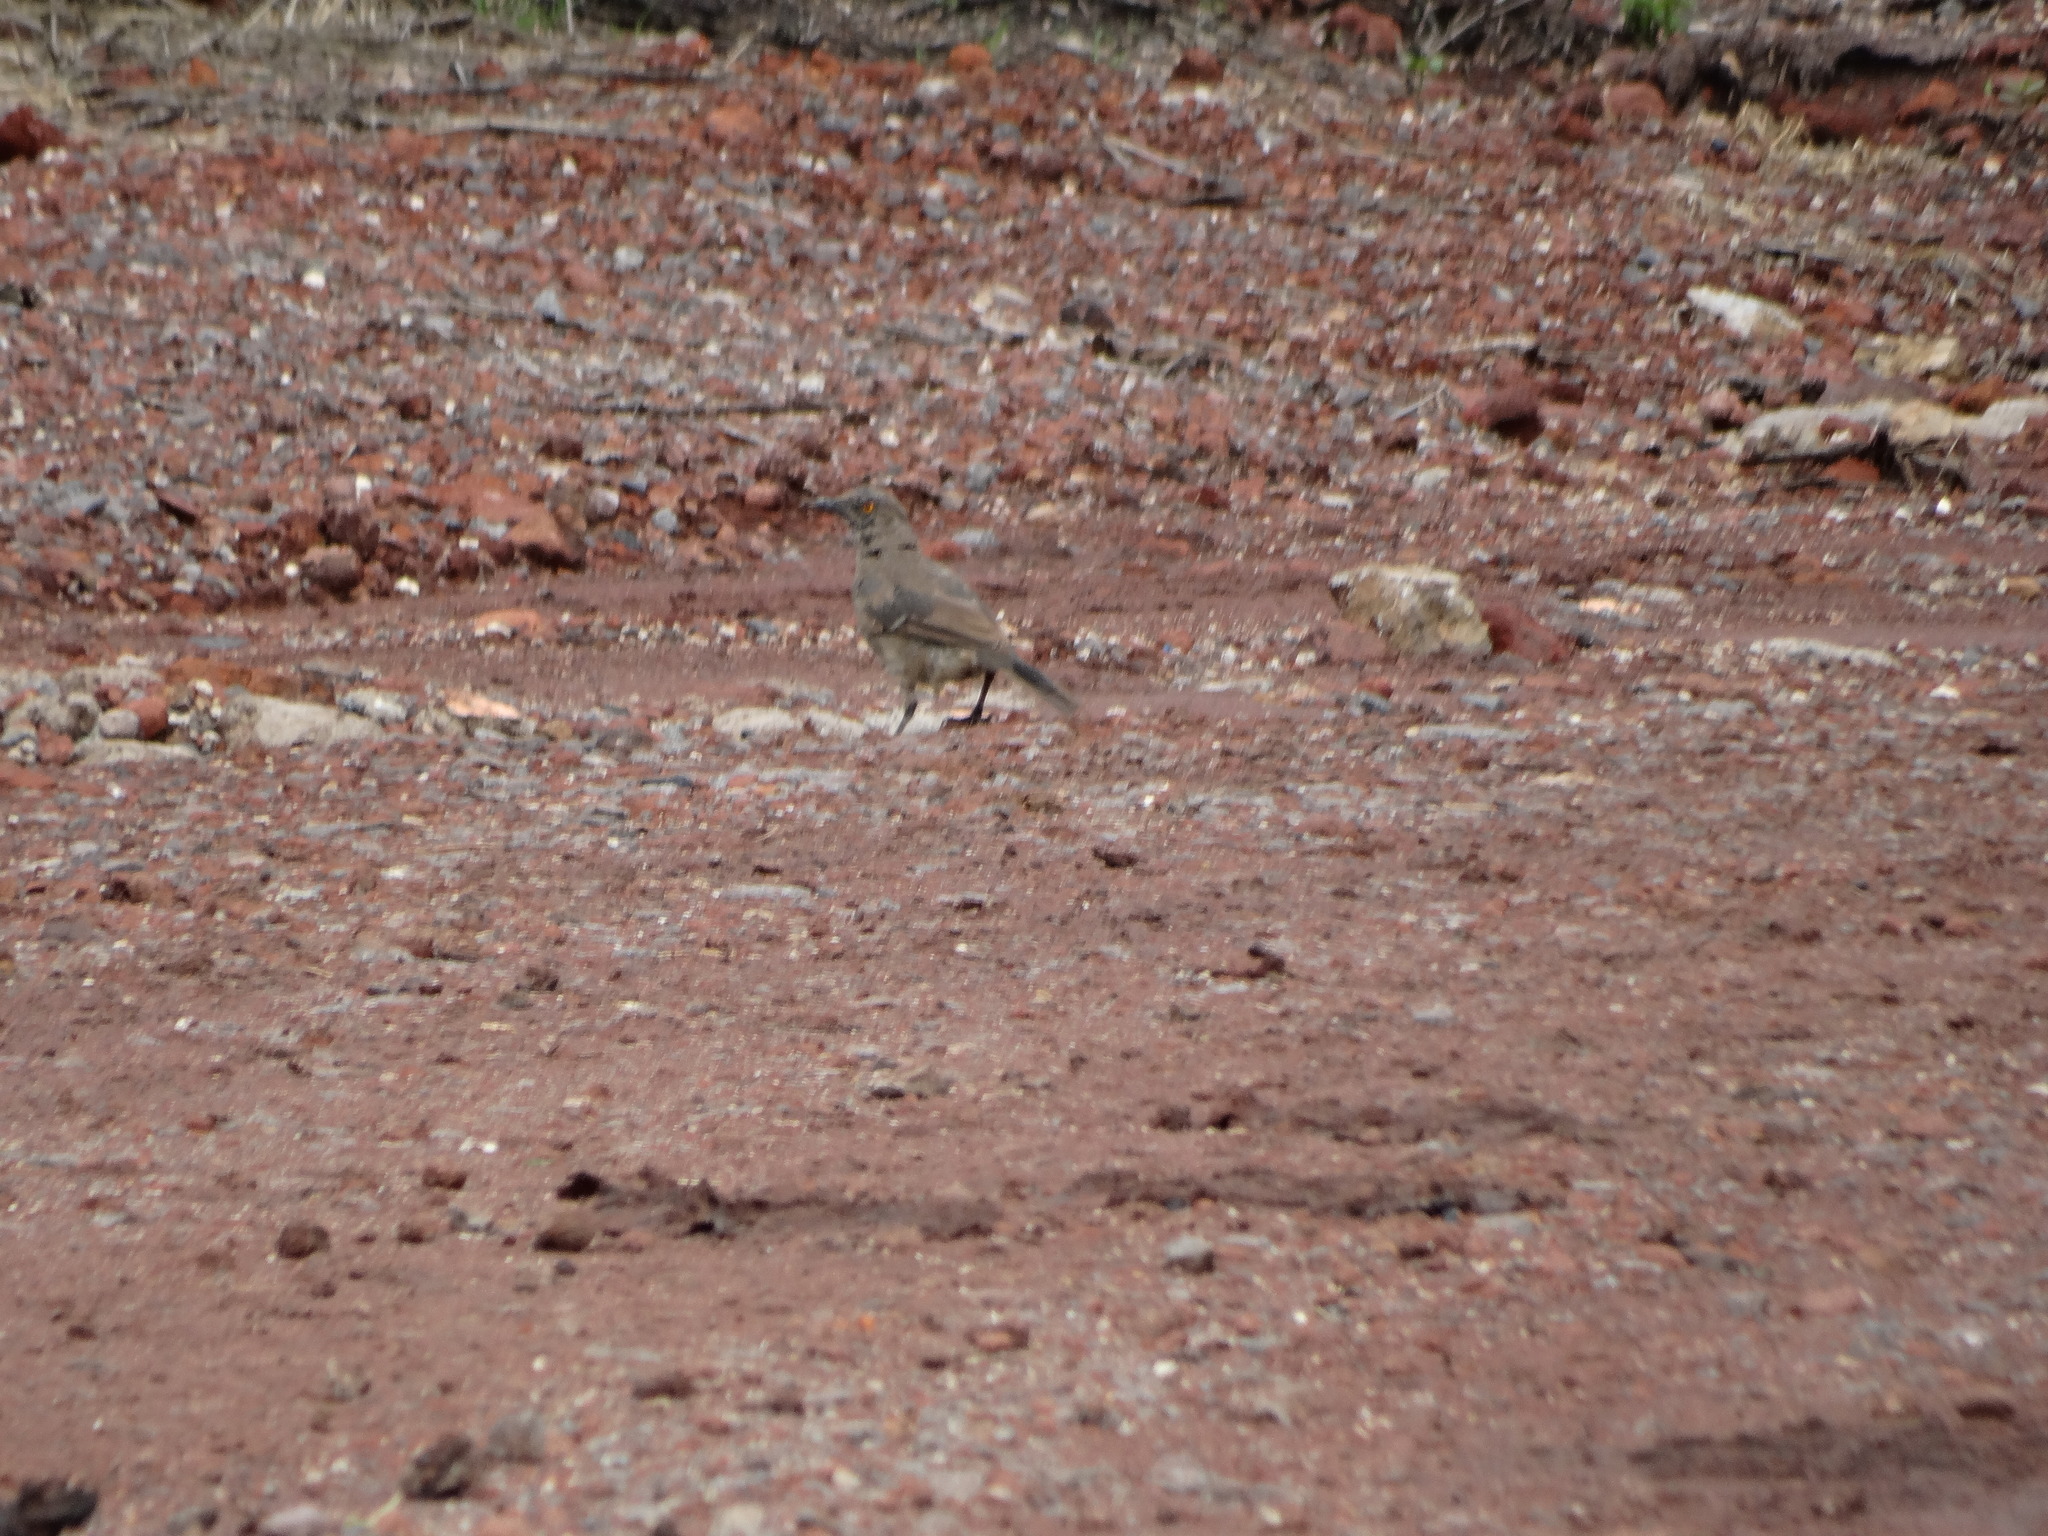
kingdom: Animalia
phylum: Chordata
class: Aves
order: Passeriformes
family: Mimidae
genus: Toxostoma
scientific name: Toxostoma curvirostre
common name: Curve-billed thrasher
